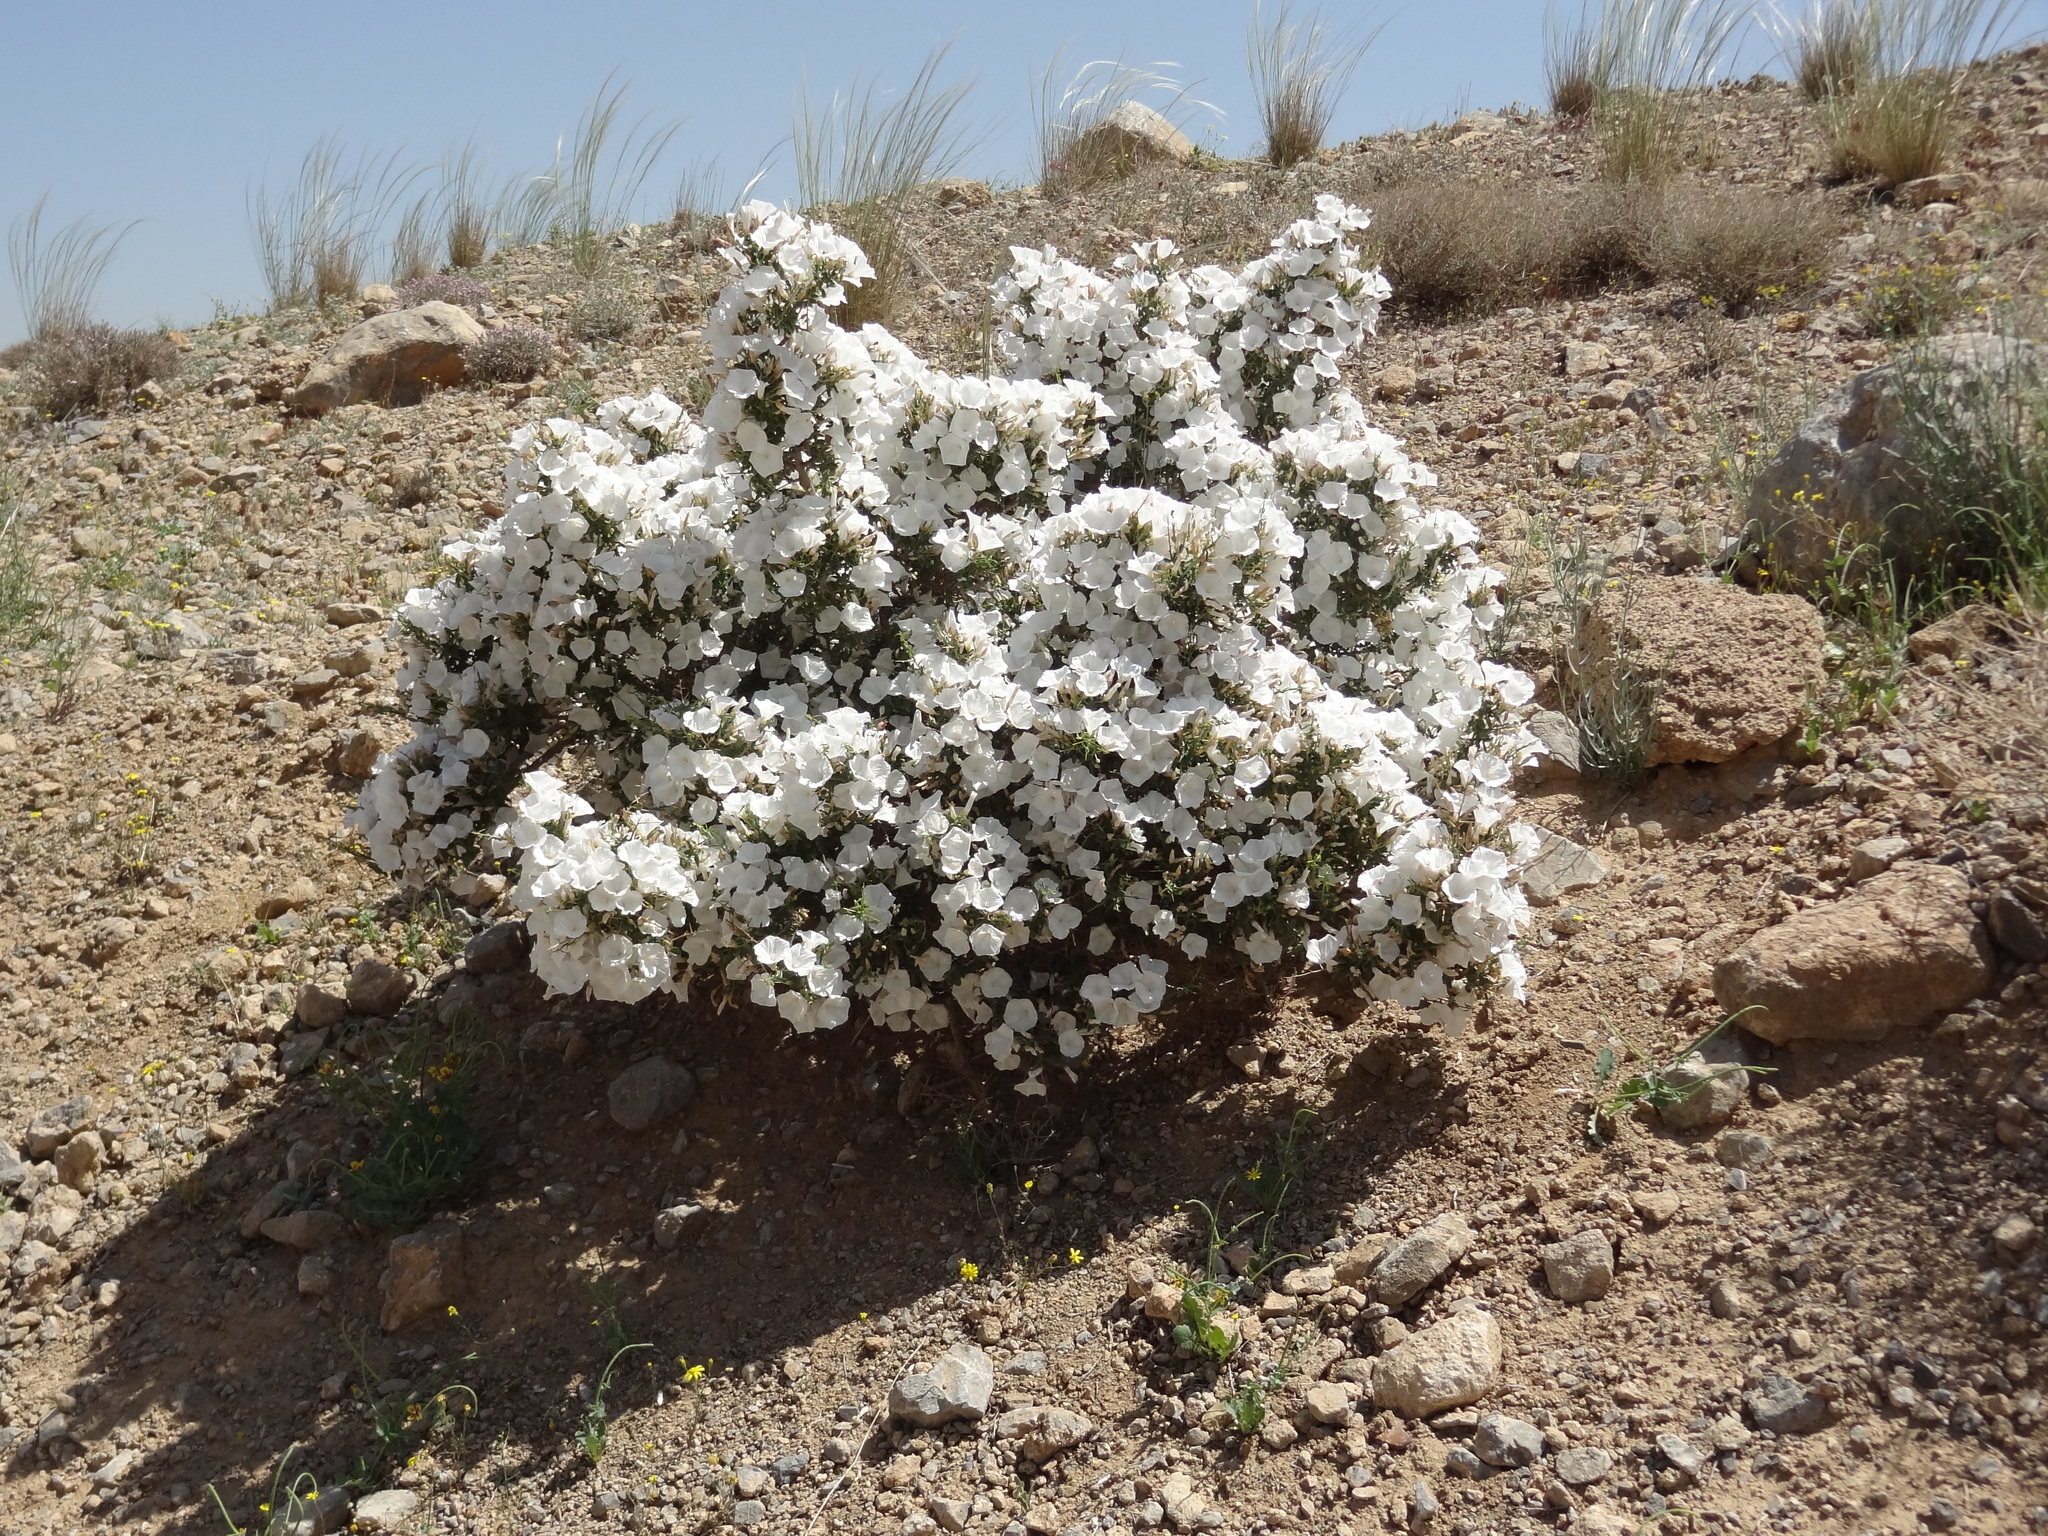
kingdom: Plantae
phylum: Tracheophyta
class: Magnoliopsida
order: Solanales
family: Convolvulaceae
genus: Convolvulus
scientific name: Convolvulus leiocalycinus
